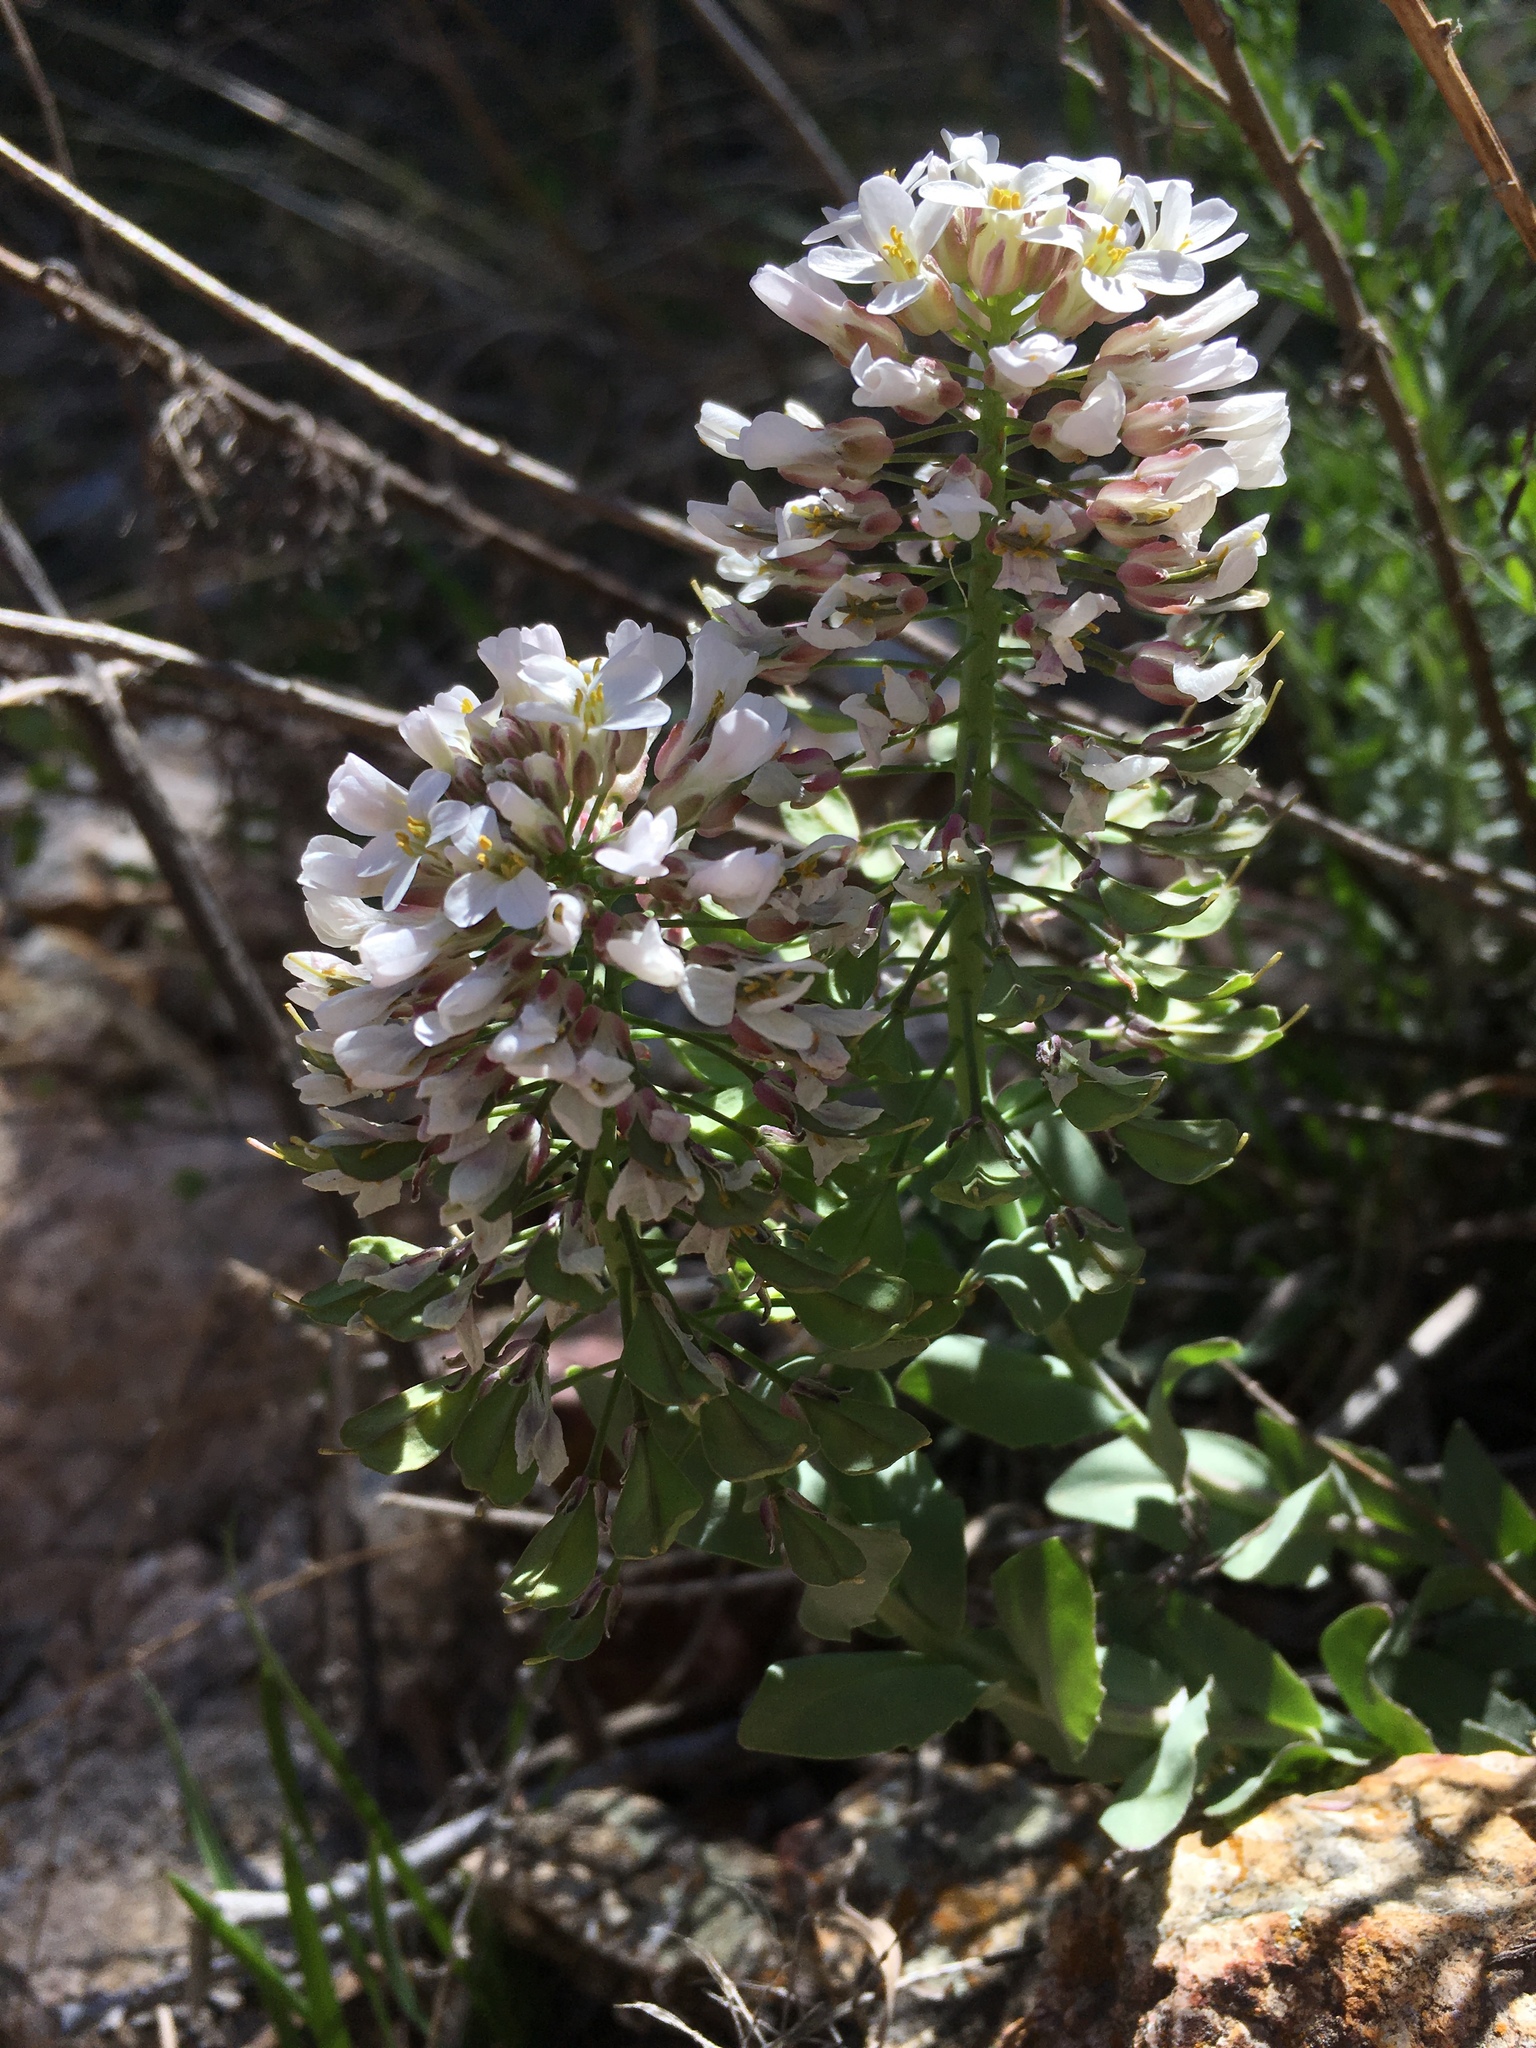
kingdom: Plantae
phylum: Tracheophyta
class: Magnoliopsida
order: Brassicales
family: Brassicaceae
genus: Noccaea
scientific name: Noccaea fendleri
